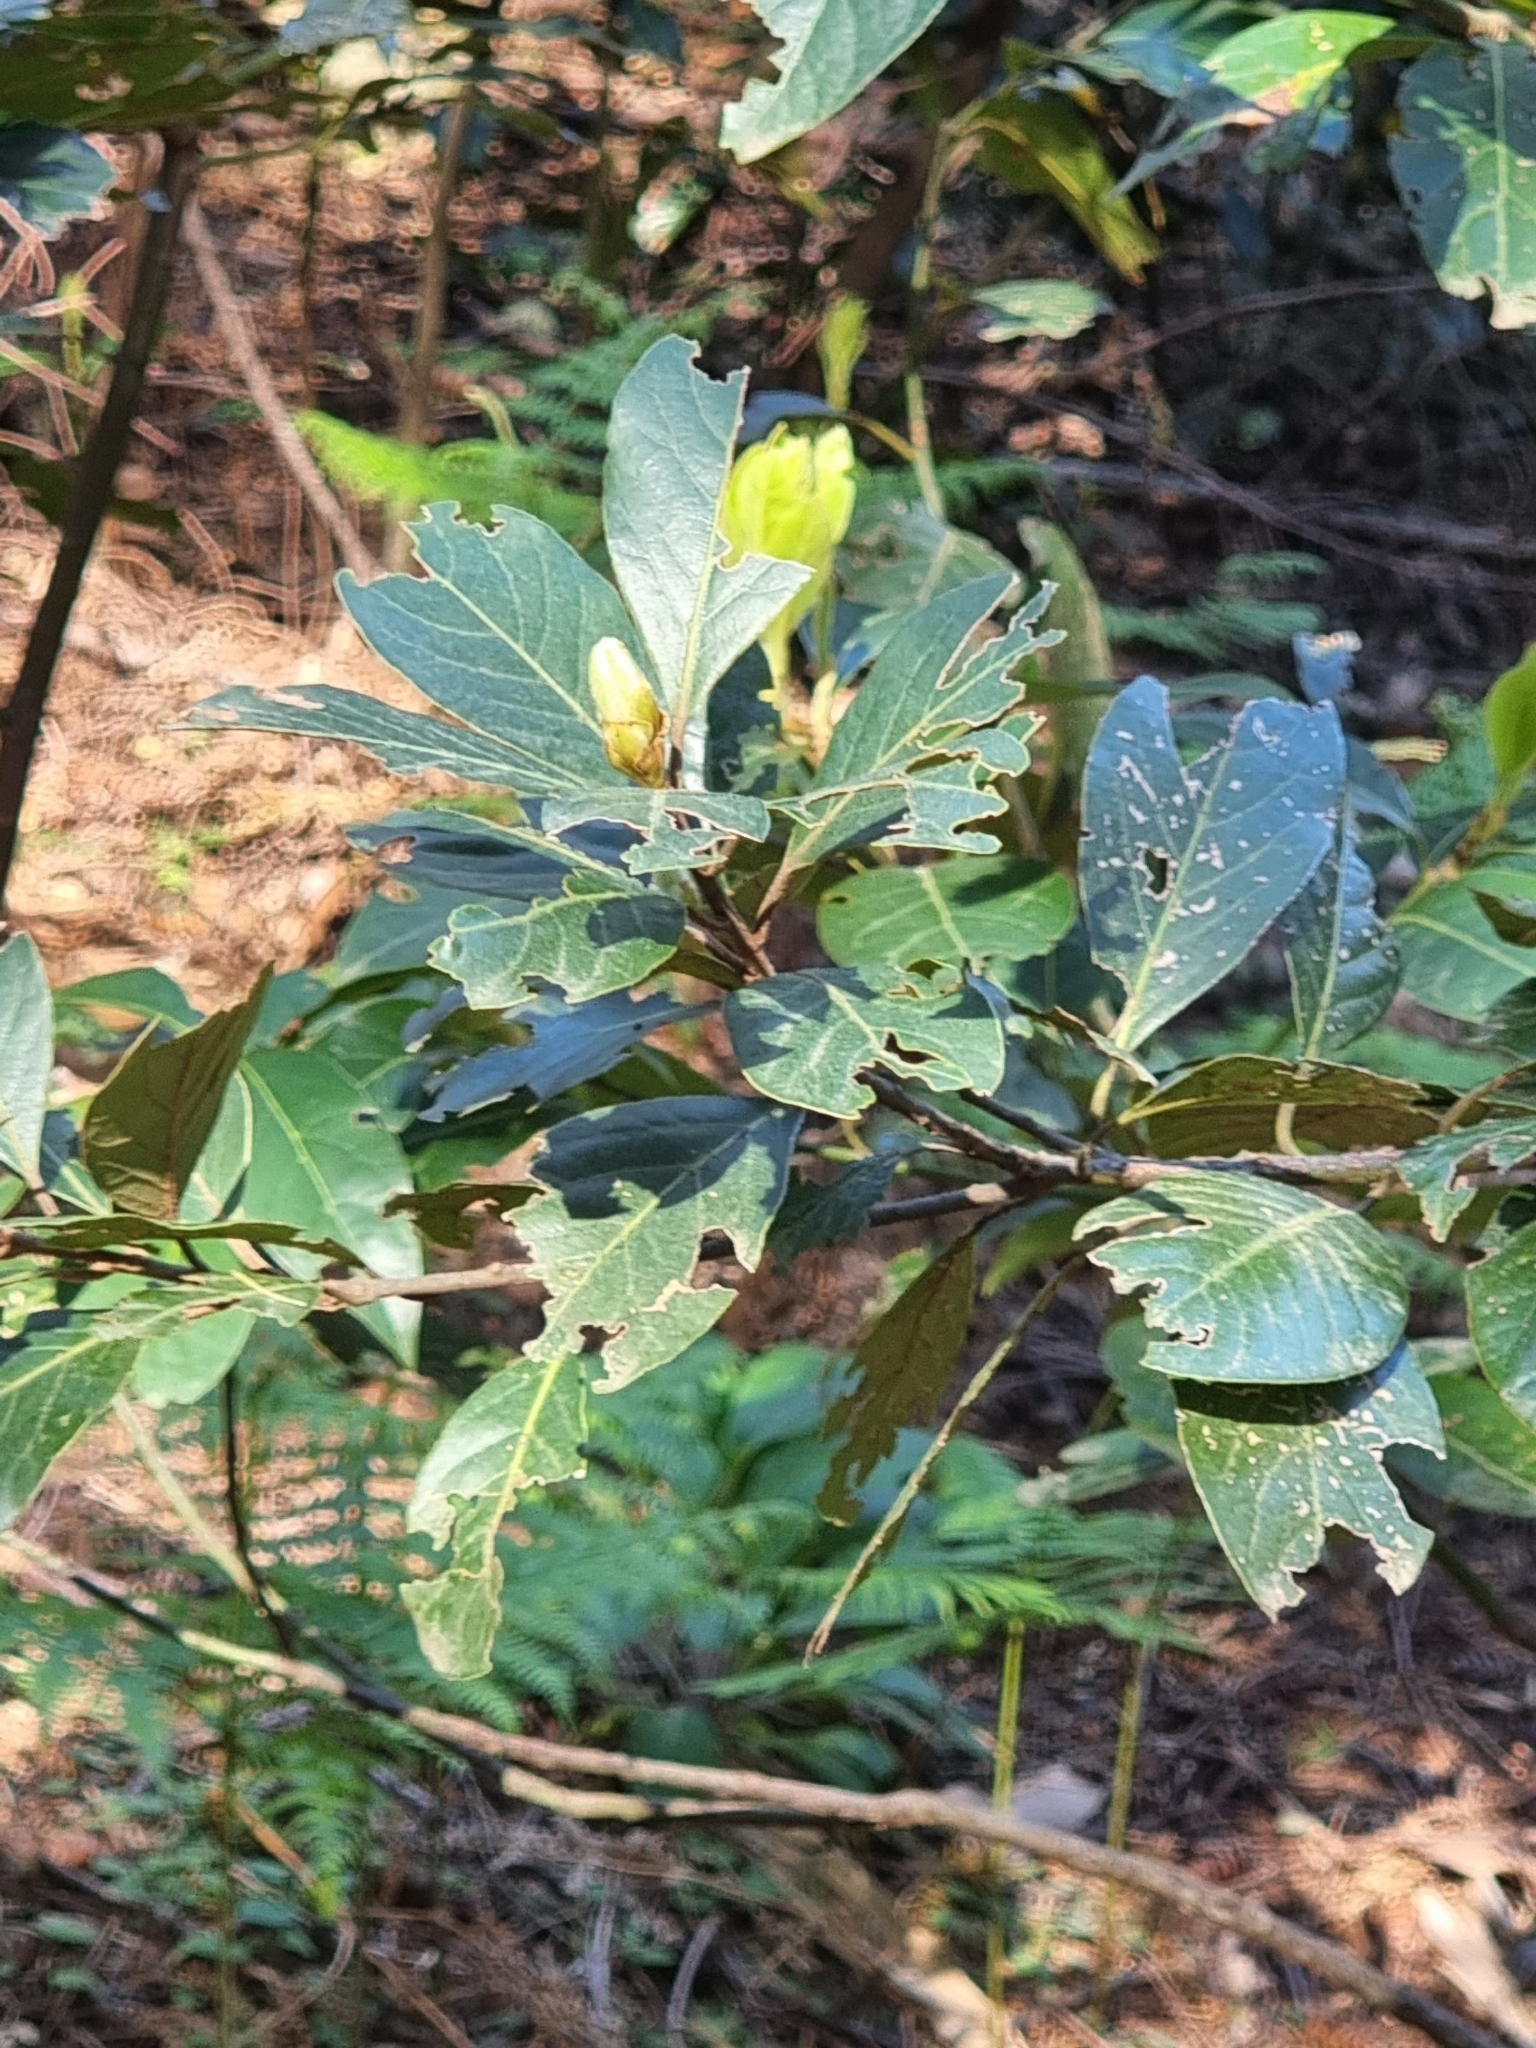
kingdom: Plantae
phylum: Tracheophyta
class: Magnoliopsida
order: Laurales
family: Lauraceae
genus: Laurus
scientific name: Laurus novocanariensis
